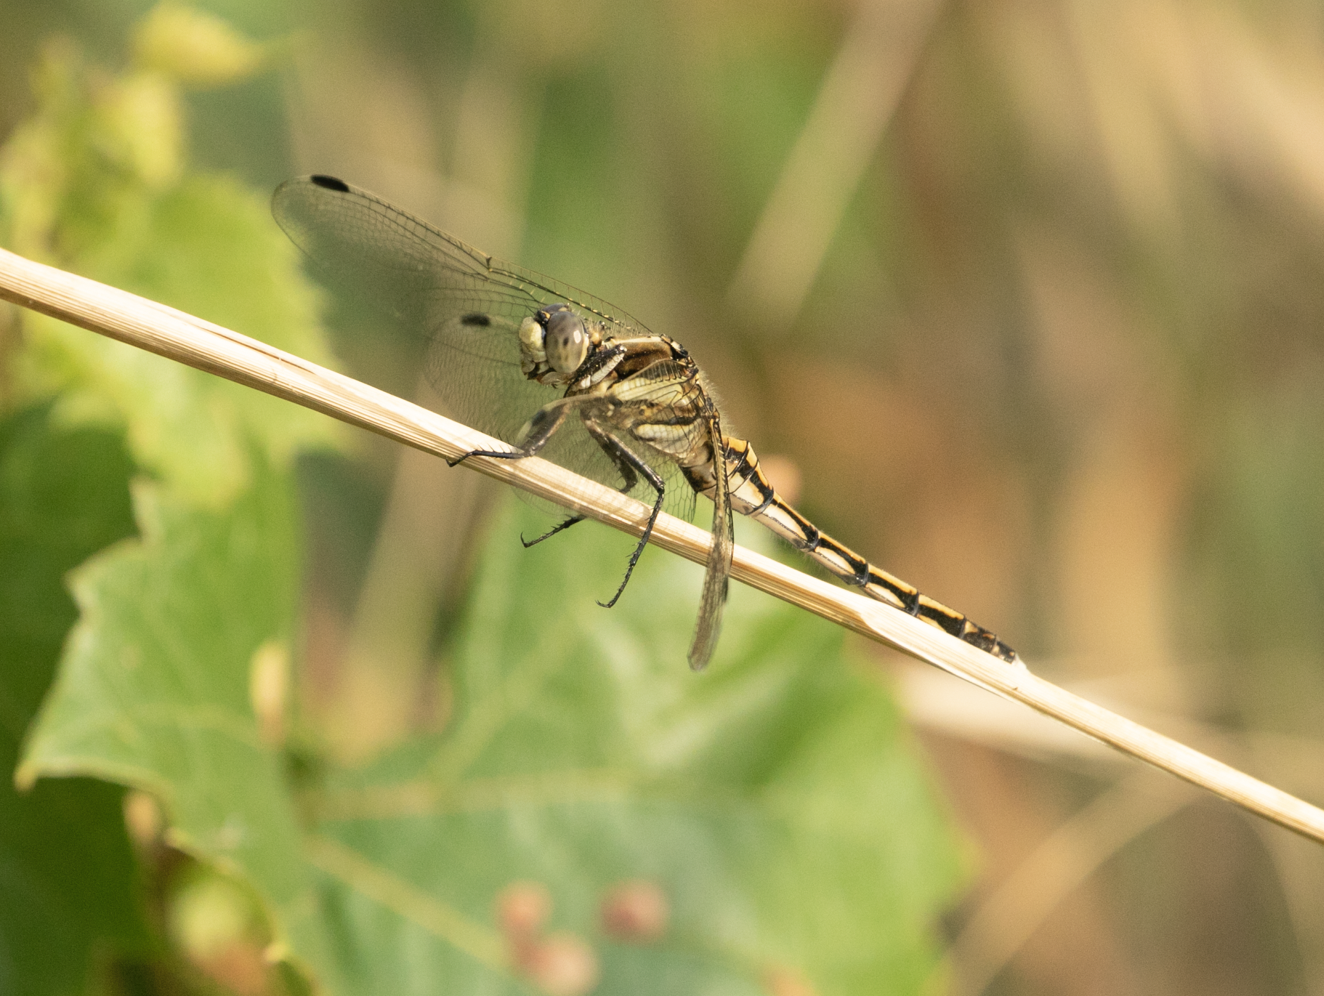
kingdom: Animalia
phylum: Arthropoda
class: Insecta
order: Odonata
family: Libellulidae
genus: Orthetrum
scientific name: Orthetrum albistylum
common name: White-tailed skimmer
